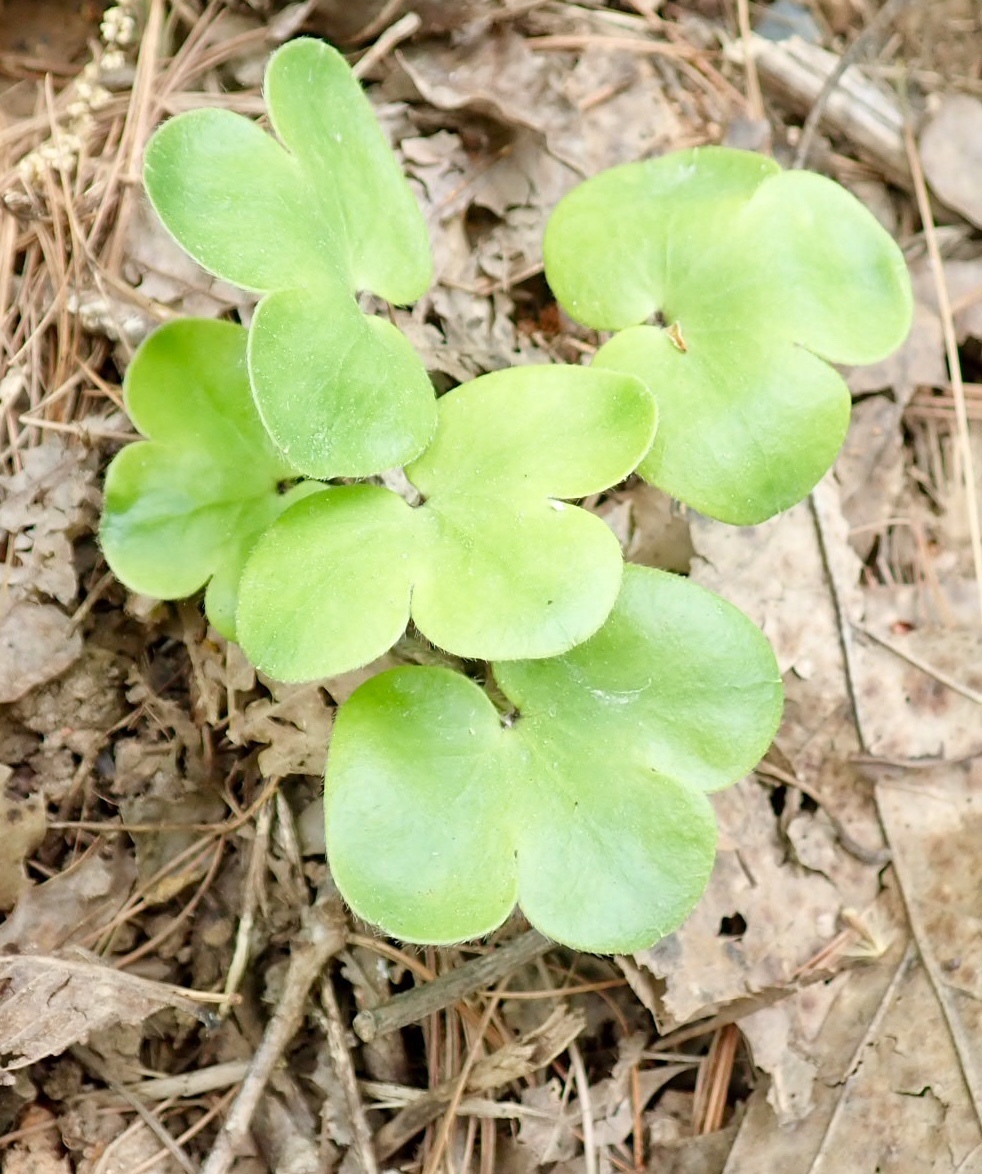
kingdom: Plantae
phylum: Tracheophyta
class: Magnoliopsida
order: Ranunculales
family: Ranunculaceae
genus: Hepatica
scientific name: Hepatica americana
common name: American hepatica
